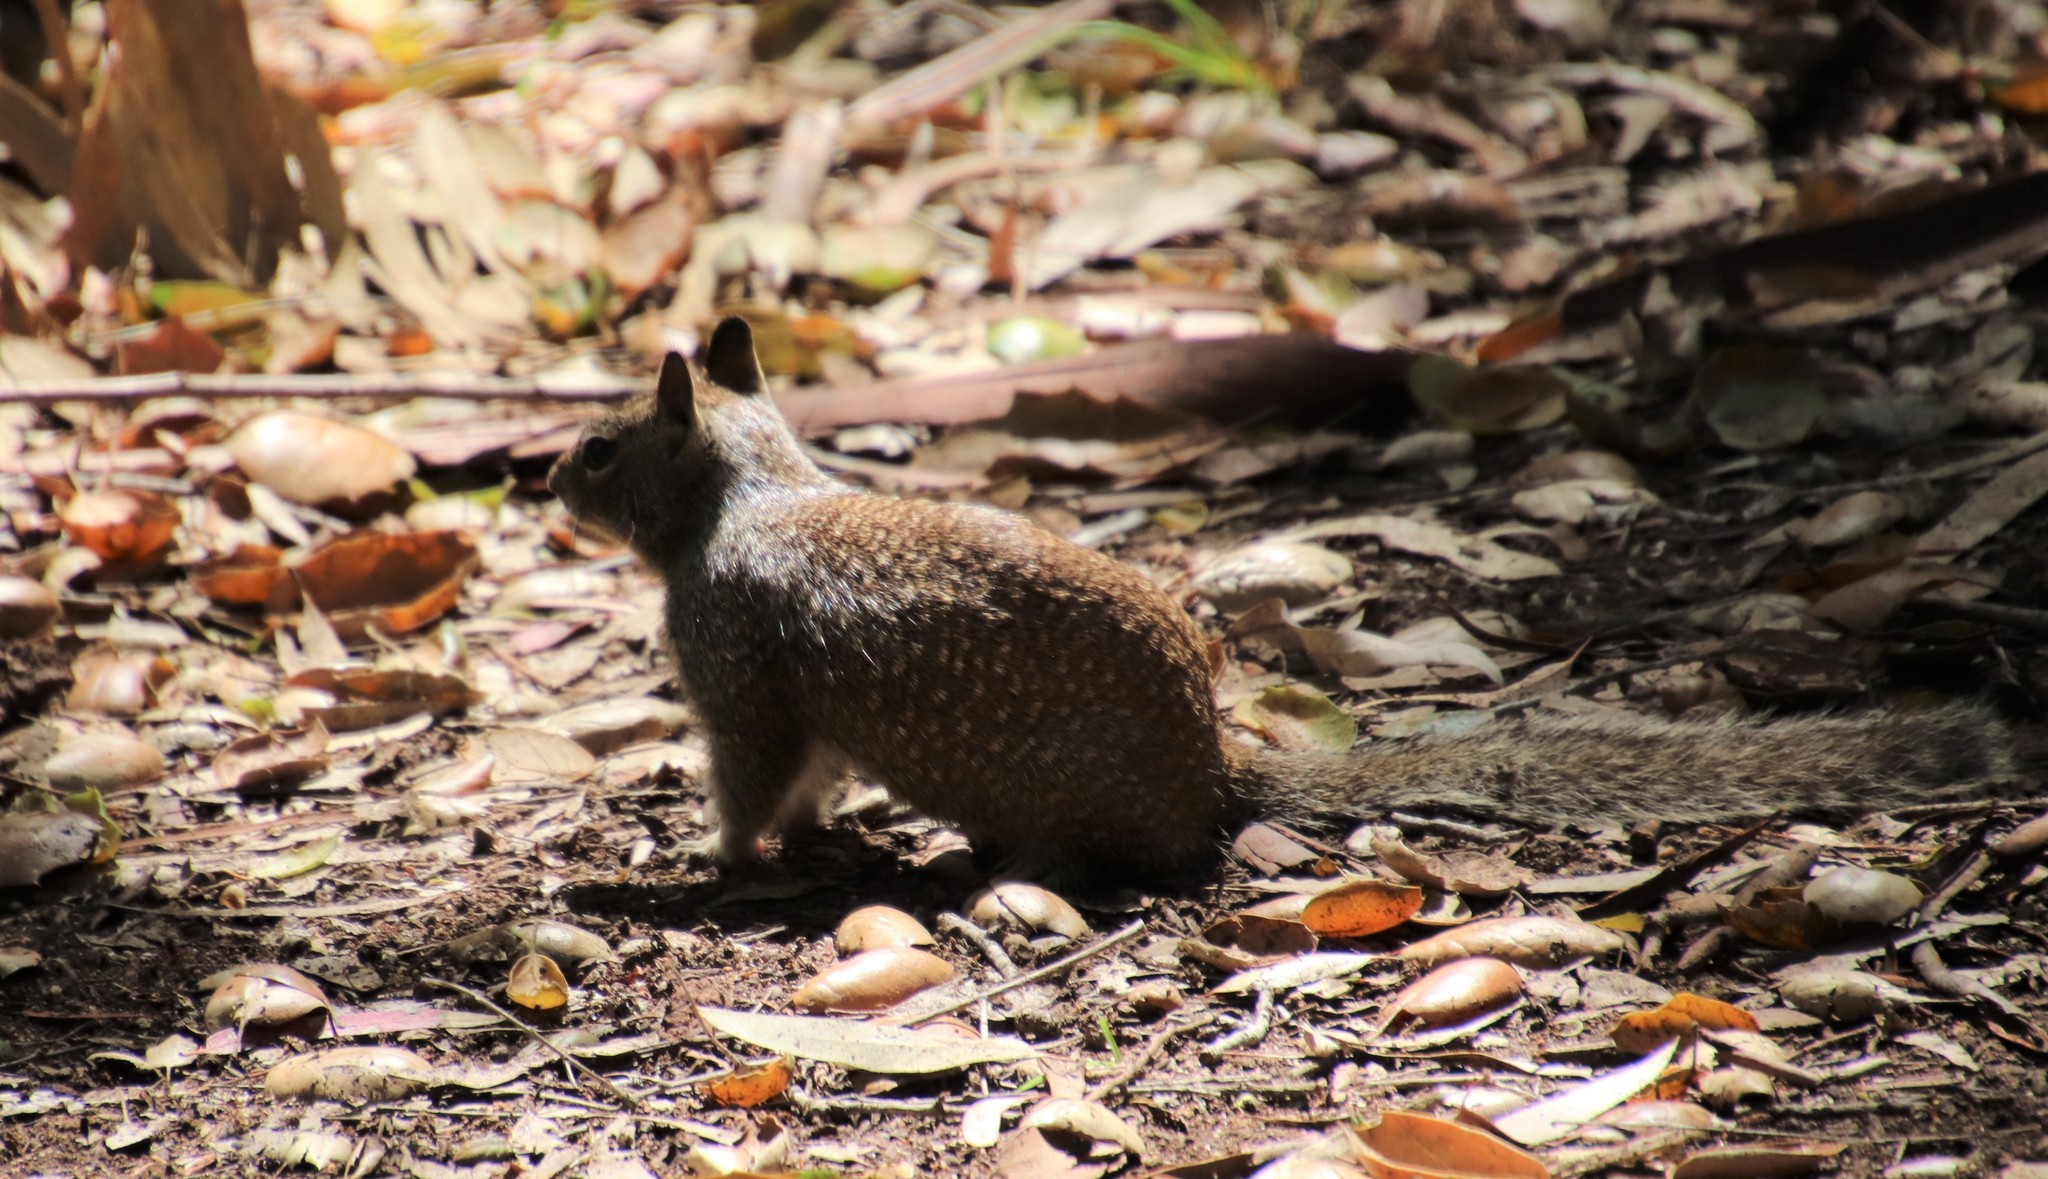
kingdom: Animalia
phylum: Chordata
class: Mammalia
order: Rodentia
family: Sciuridae
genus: Otospermophilus
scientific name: Otospermophilus beecheyi
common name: California ground squirrel
